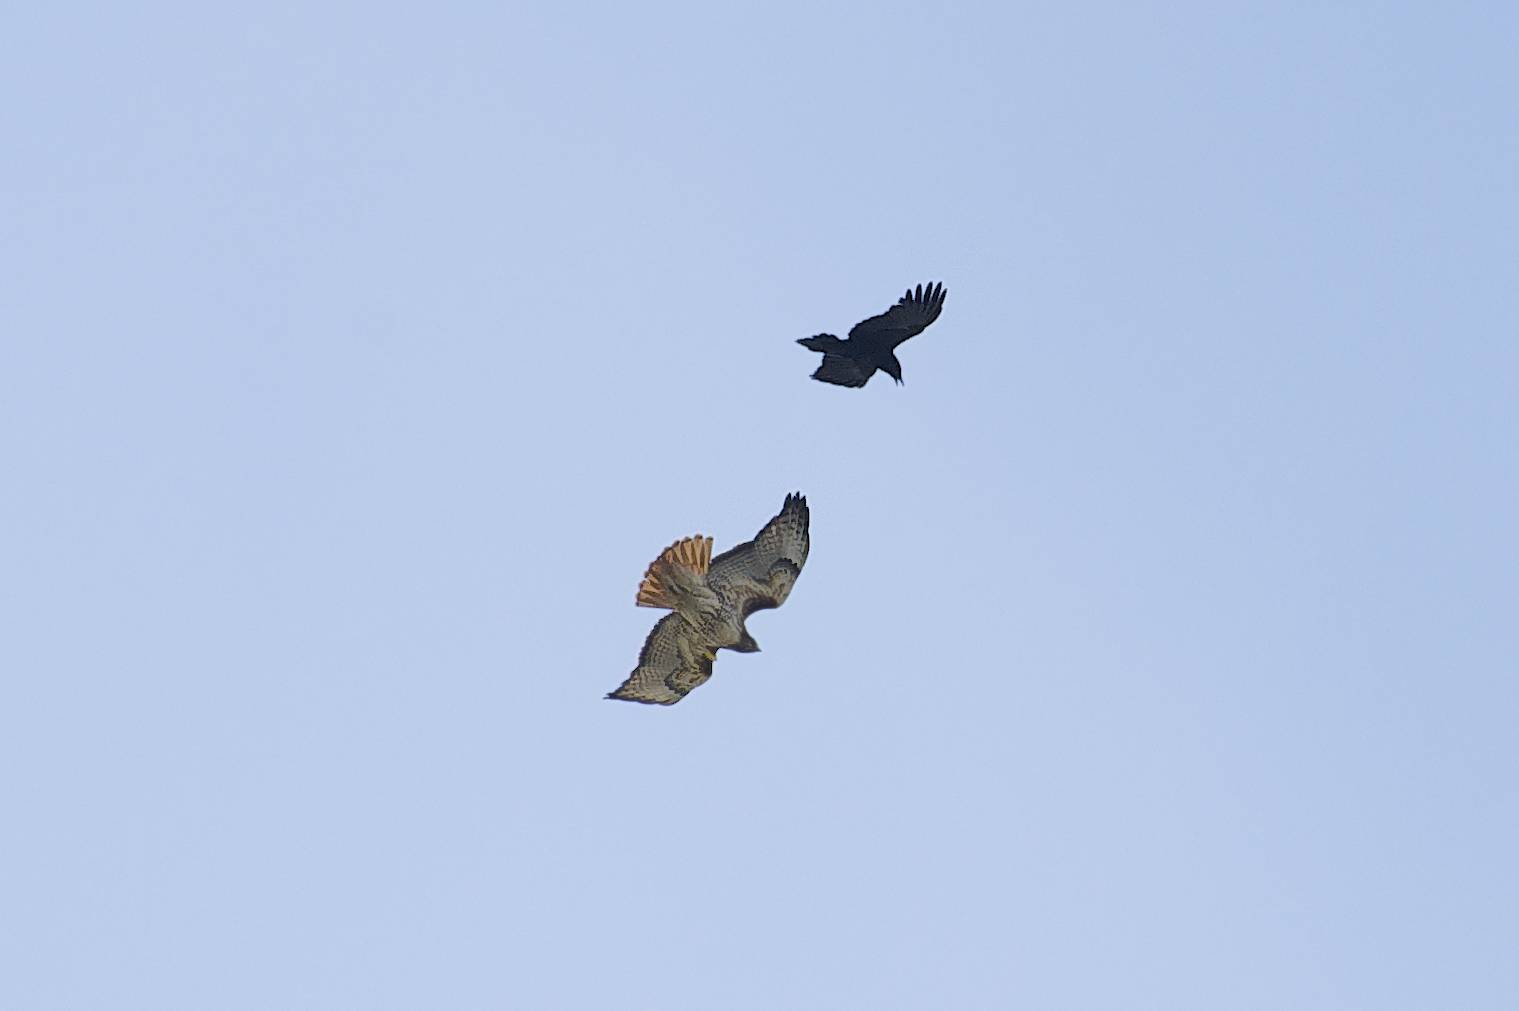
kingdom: Animalia
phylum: Chordata
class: Aves
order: Accipitriformes
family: Accipitridae
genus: Buteo
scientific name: Buteo jamaicensis
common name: Red-tailed hawk
